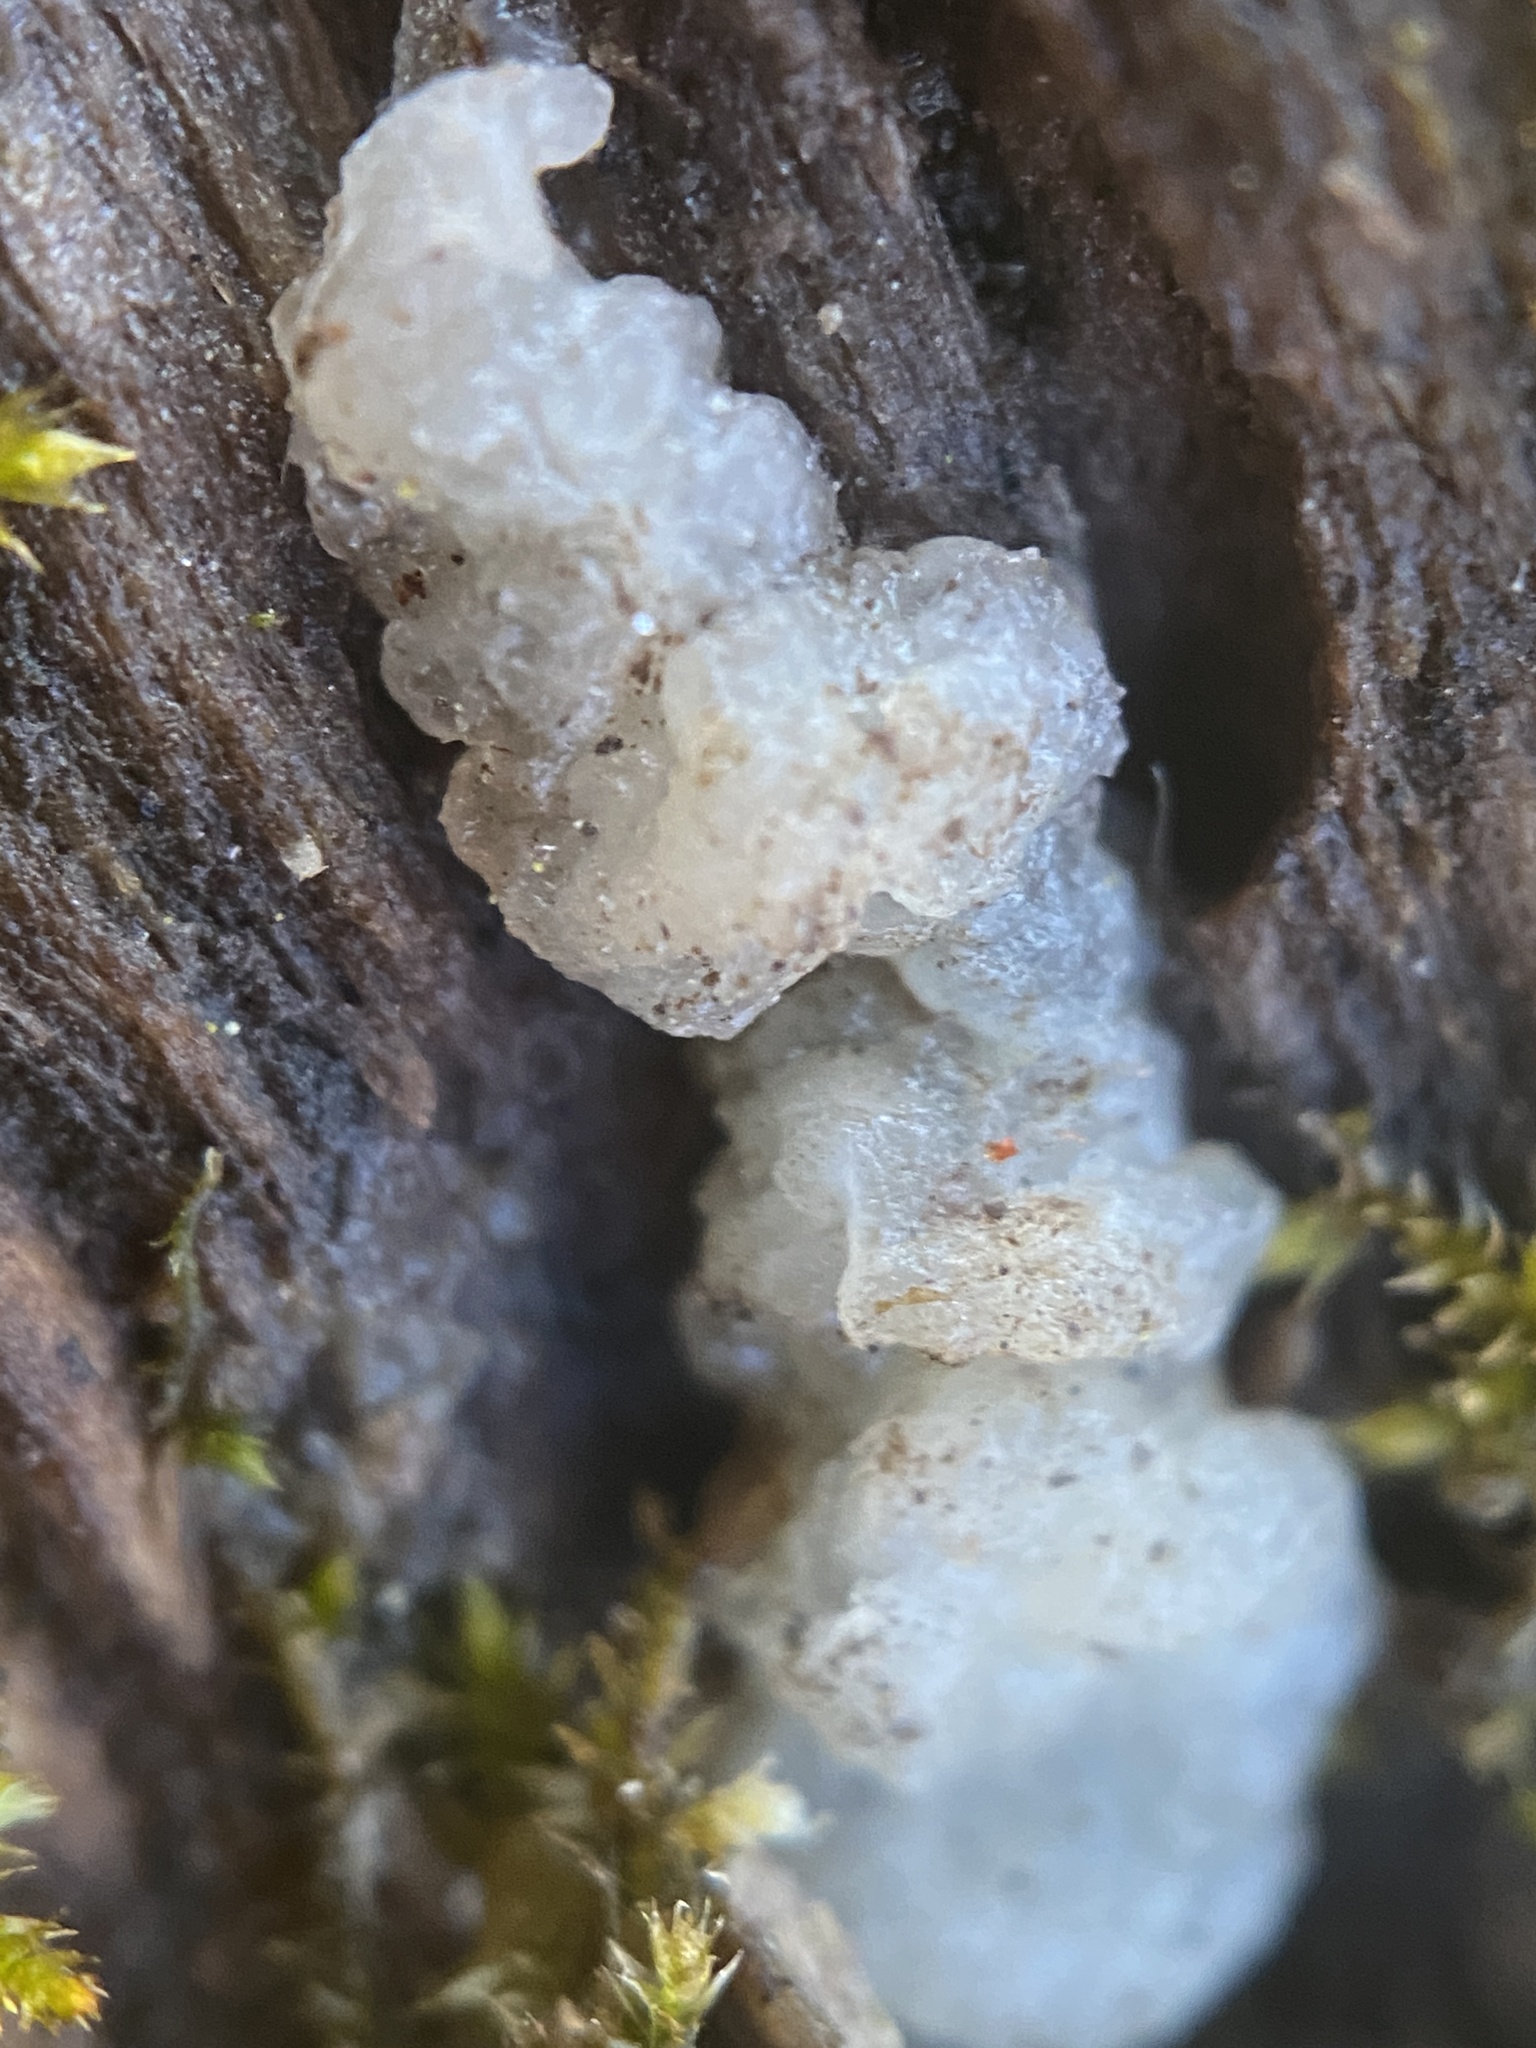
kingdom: Fungi
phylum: Basidiomycota
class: Agaricomycetes
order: Auriculariales
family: Hyaloriaceae
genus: Myxarium
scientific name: Myxarium nucleatum
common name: Crystal brain fungus
